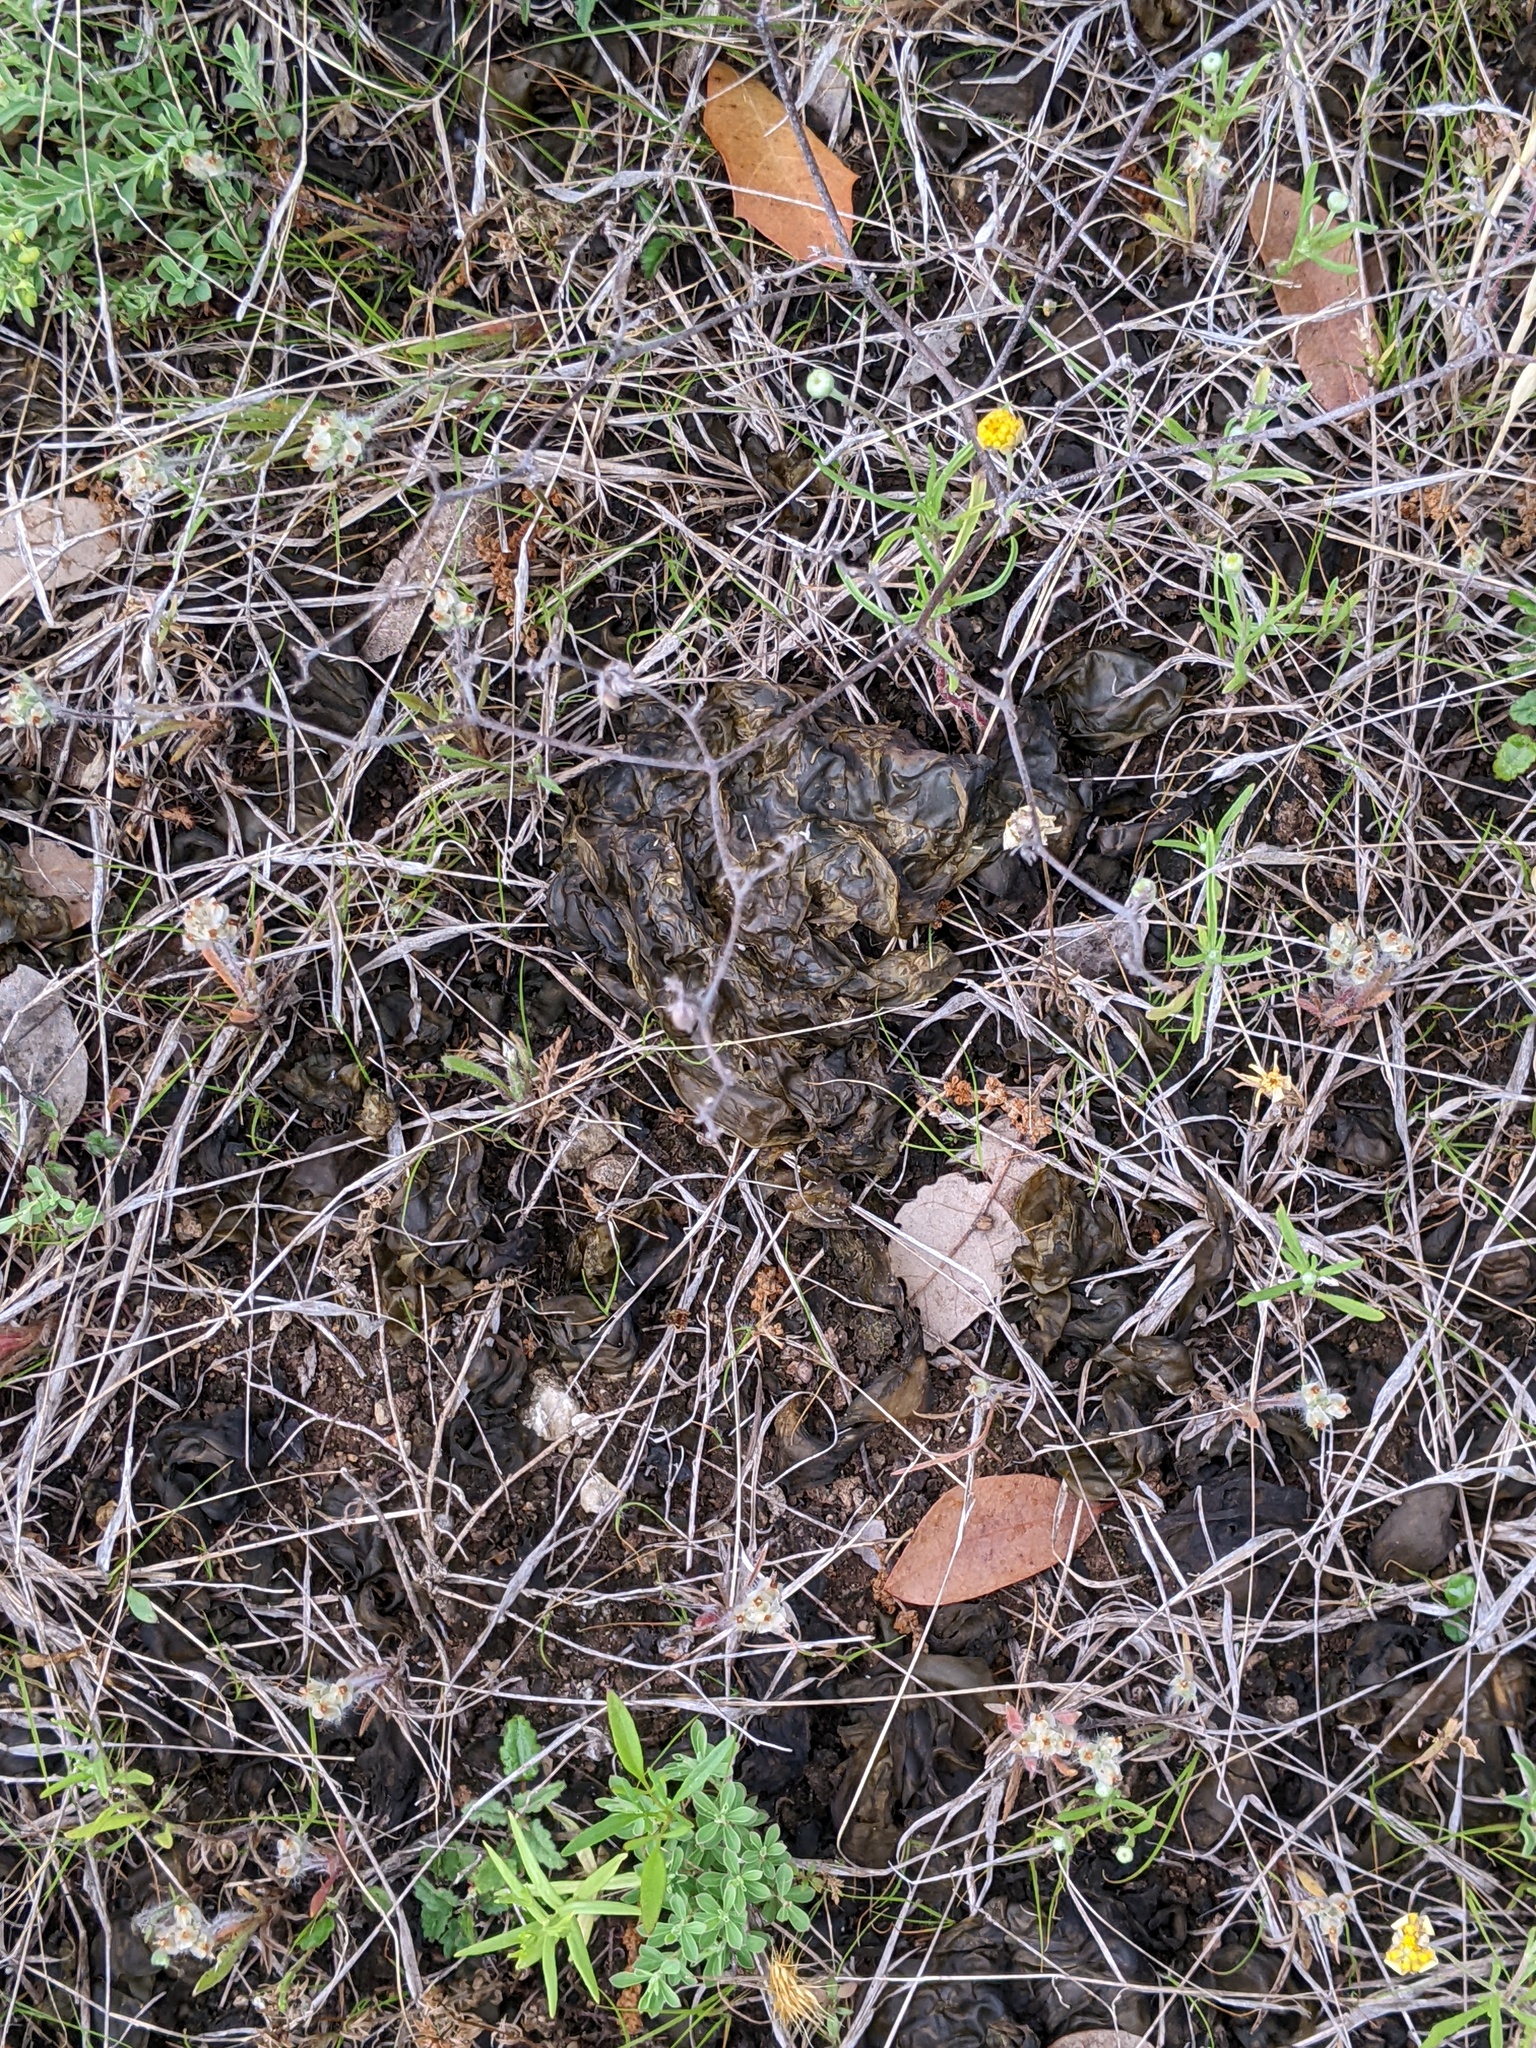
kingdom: Bacteria
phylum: Cyanobacteria
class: Cyanobacteriia
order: Cyanobacteriales
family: Nostocaceae
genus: Nostoc
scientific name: Nostoc commune
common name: Star jelly
